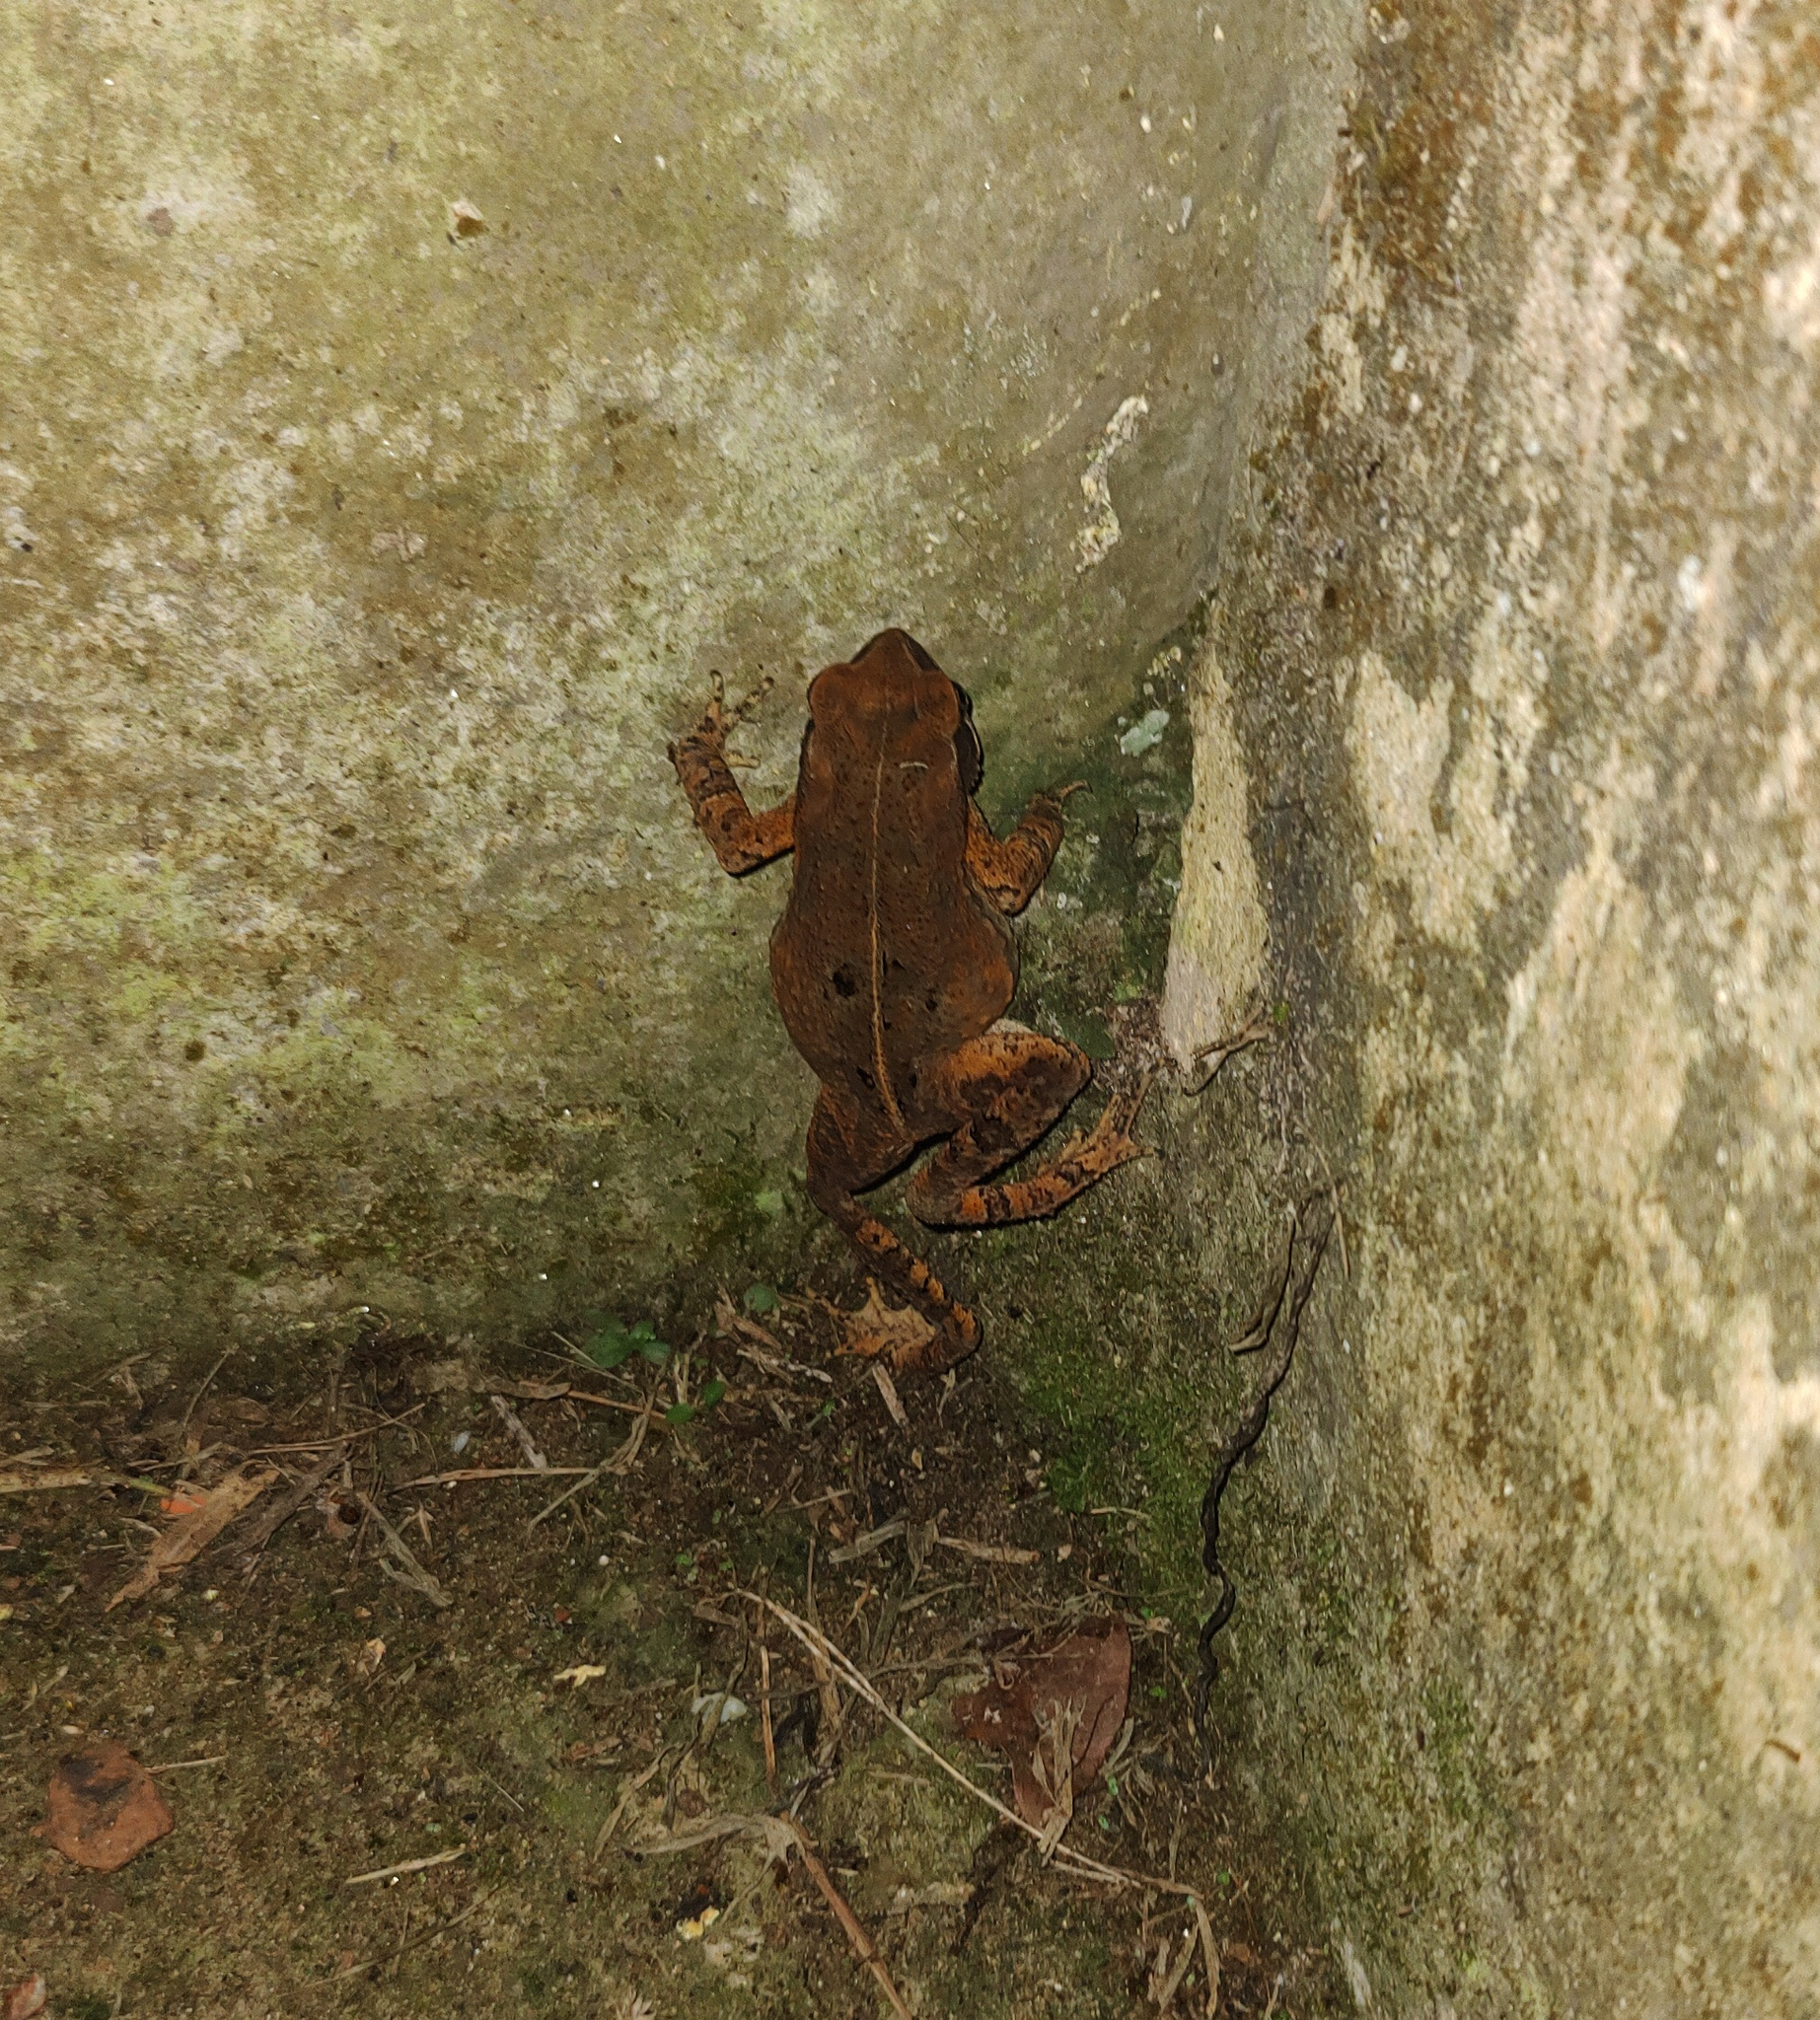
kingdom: Animalia
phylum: Chordata
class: Amphibia
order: Anura
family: Bufonidae
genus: Rhinella
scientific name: Rhinella ornata
